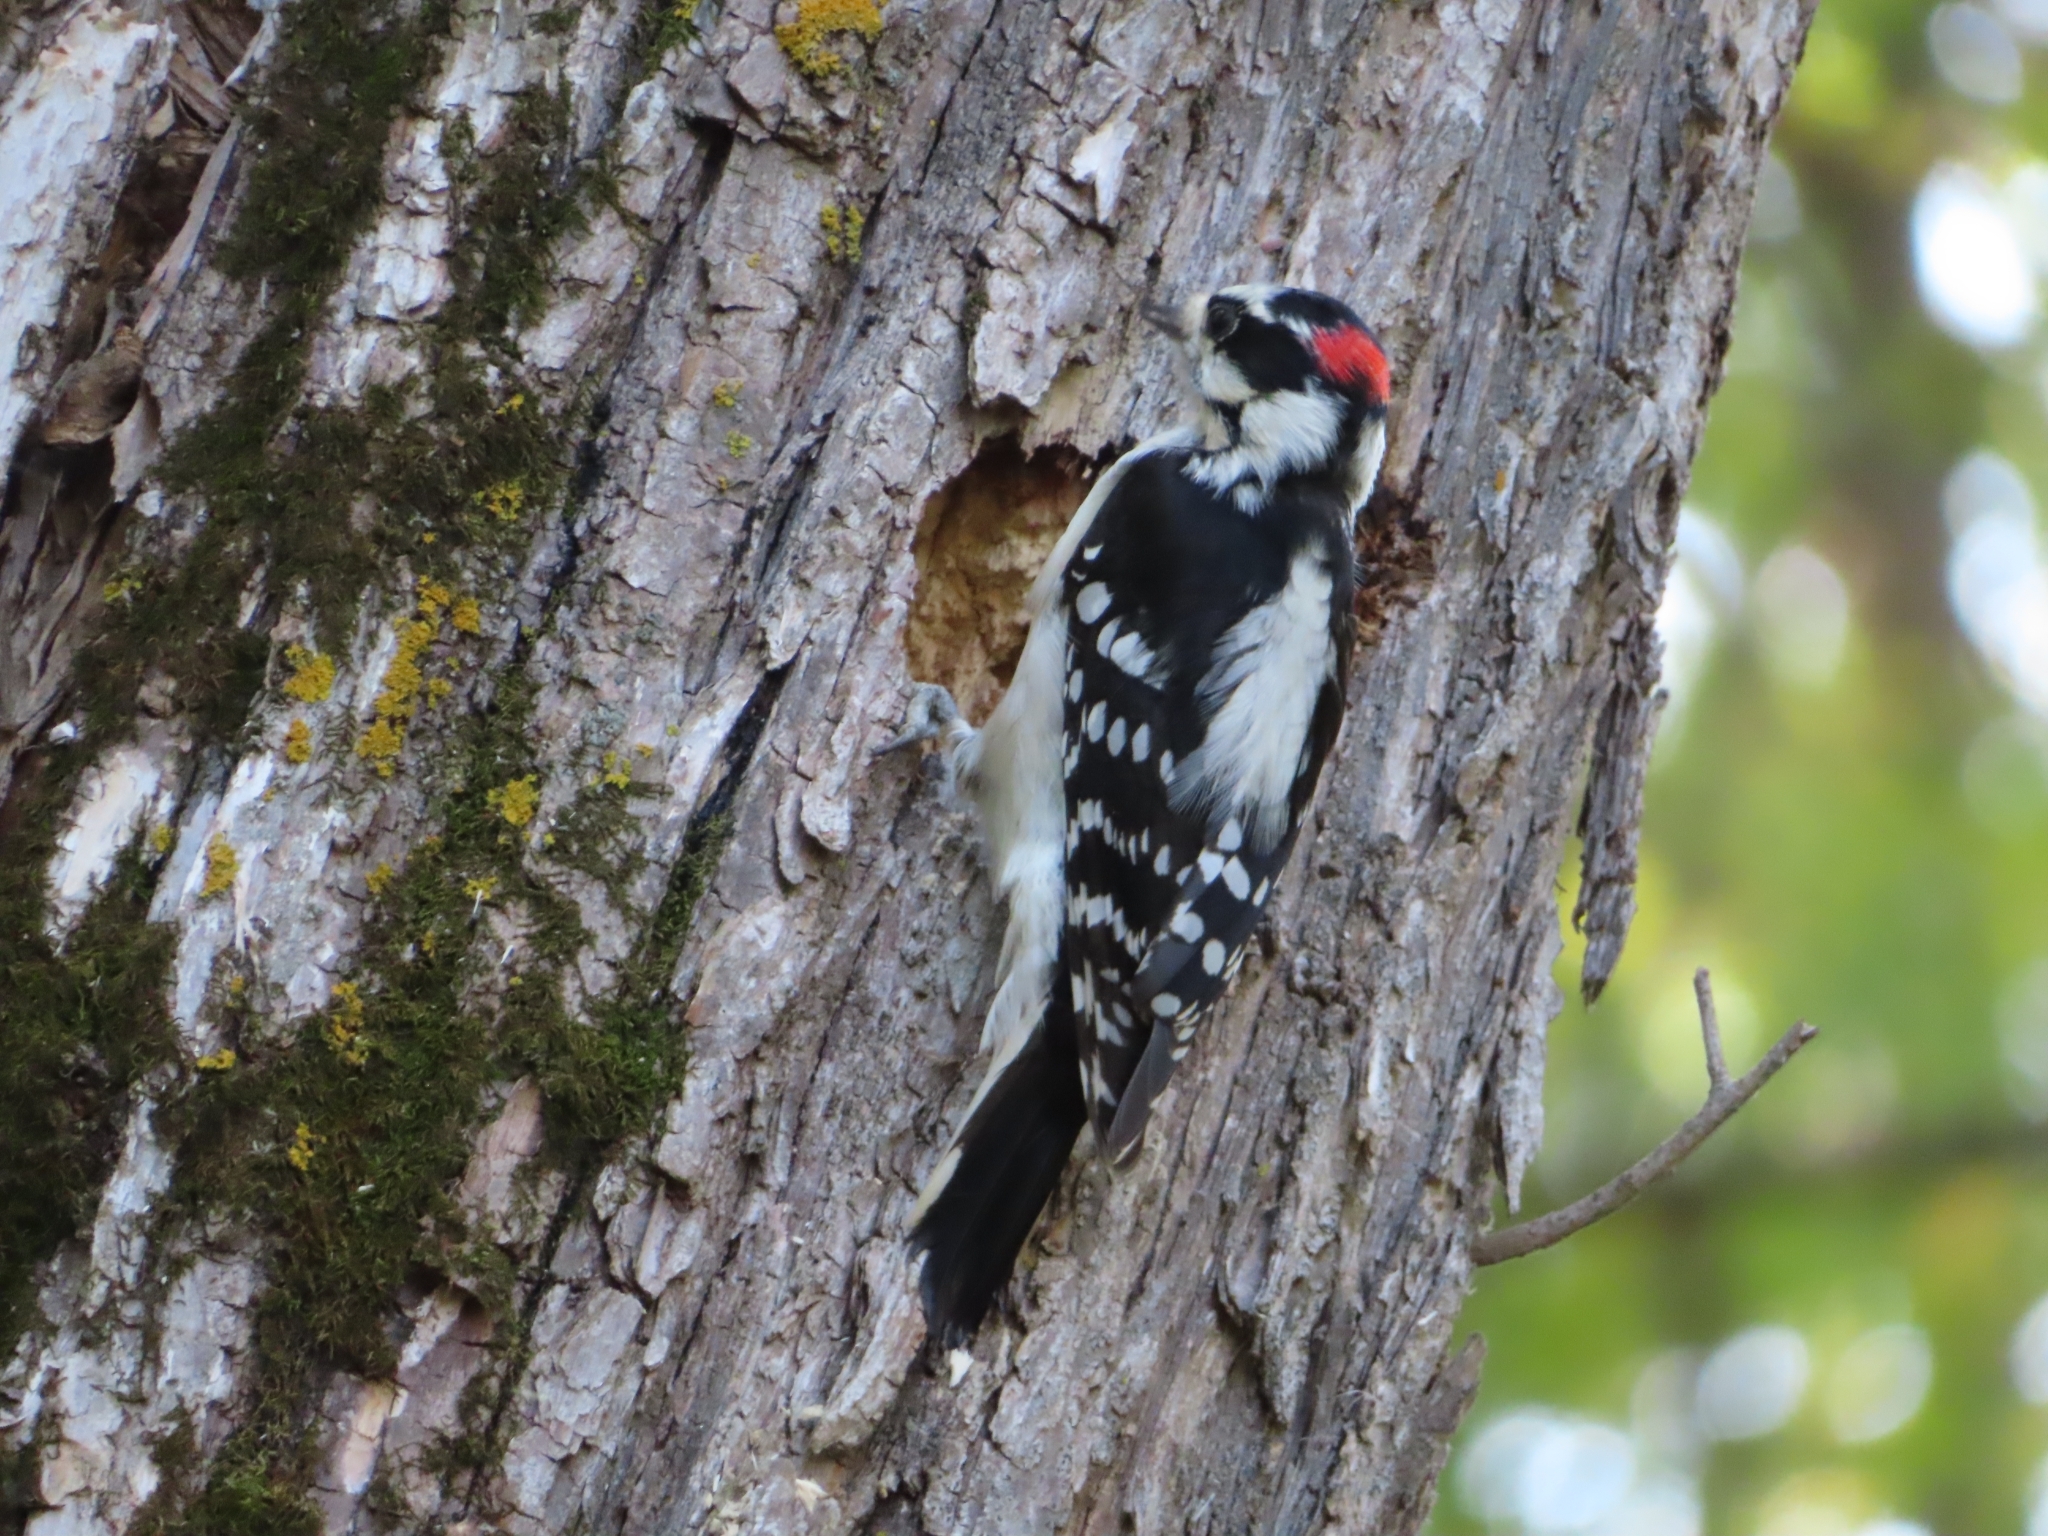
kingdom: Animalia
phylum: Chordata
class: Aves
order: Piciformes
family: Picidae
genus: Dryobates
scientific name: Dryobates pubescens
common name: Downy woodpecker
